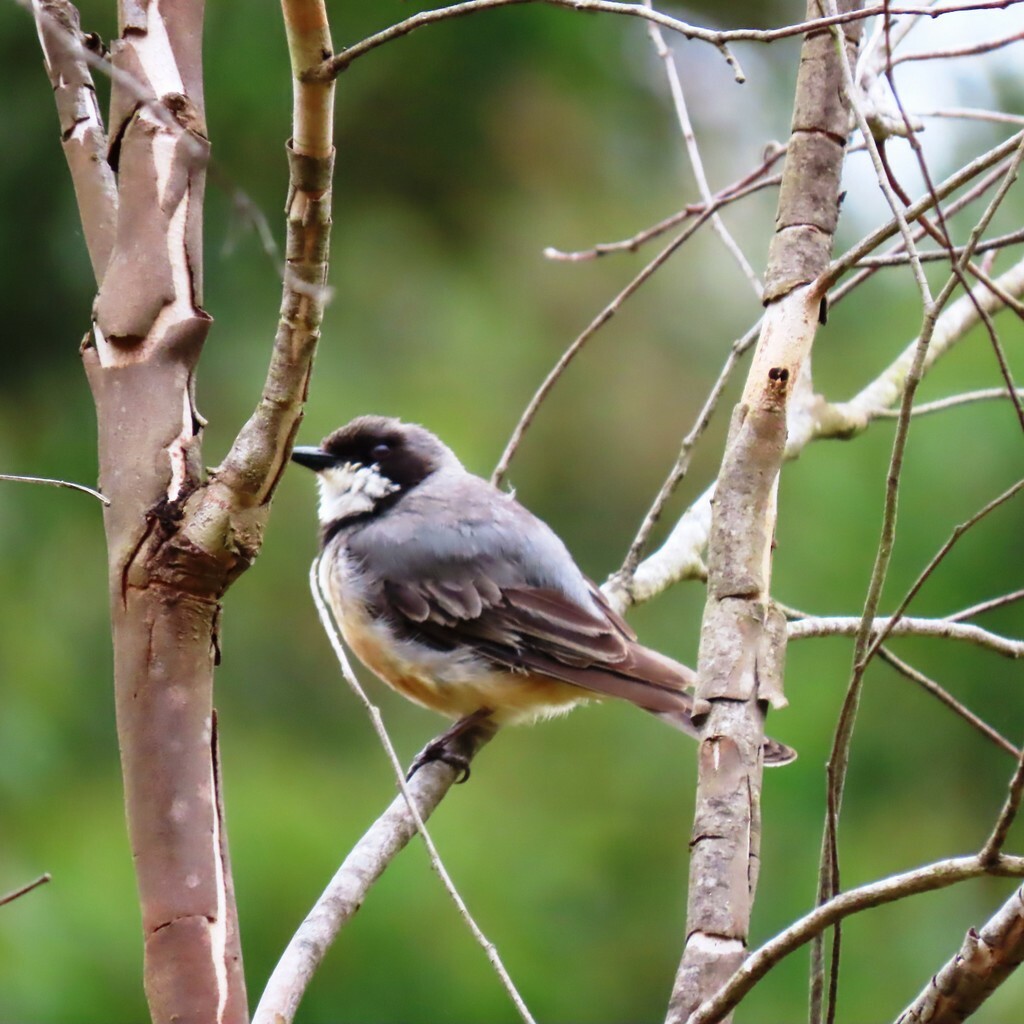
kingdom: Animalia
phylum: Chordata
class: Aves
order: Passeriformes
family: Pachycephalidae
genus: Pachycephala
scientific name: Pachycephala rufiventris
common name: Rufous whistler
